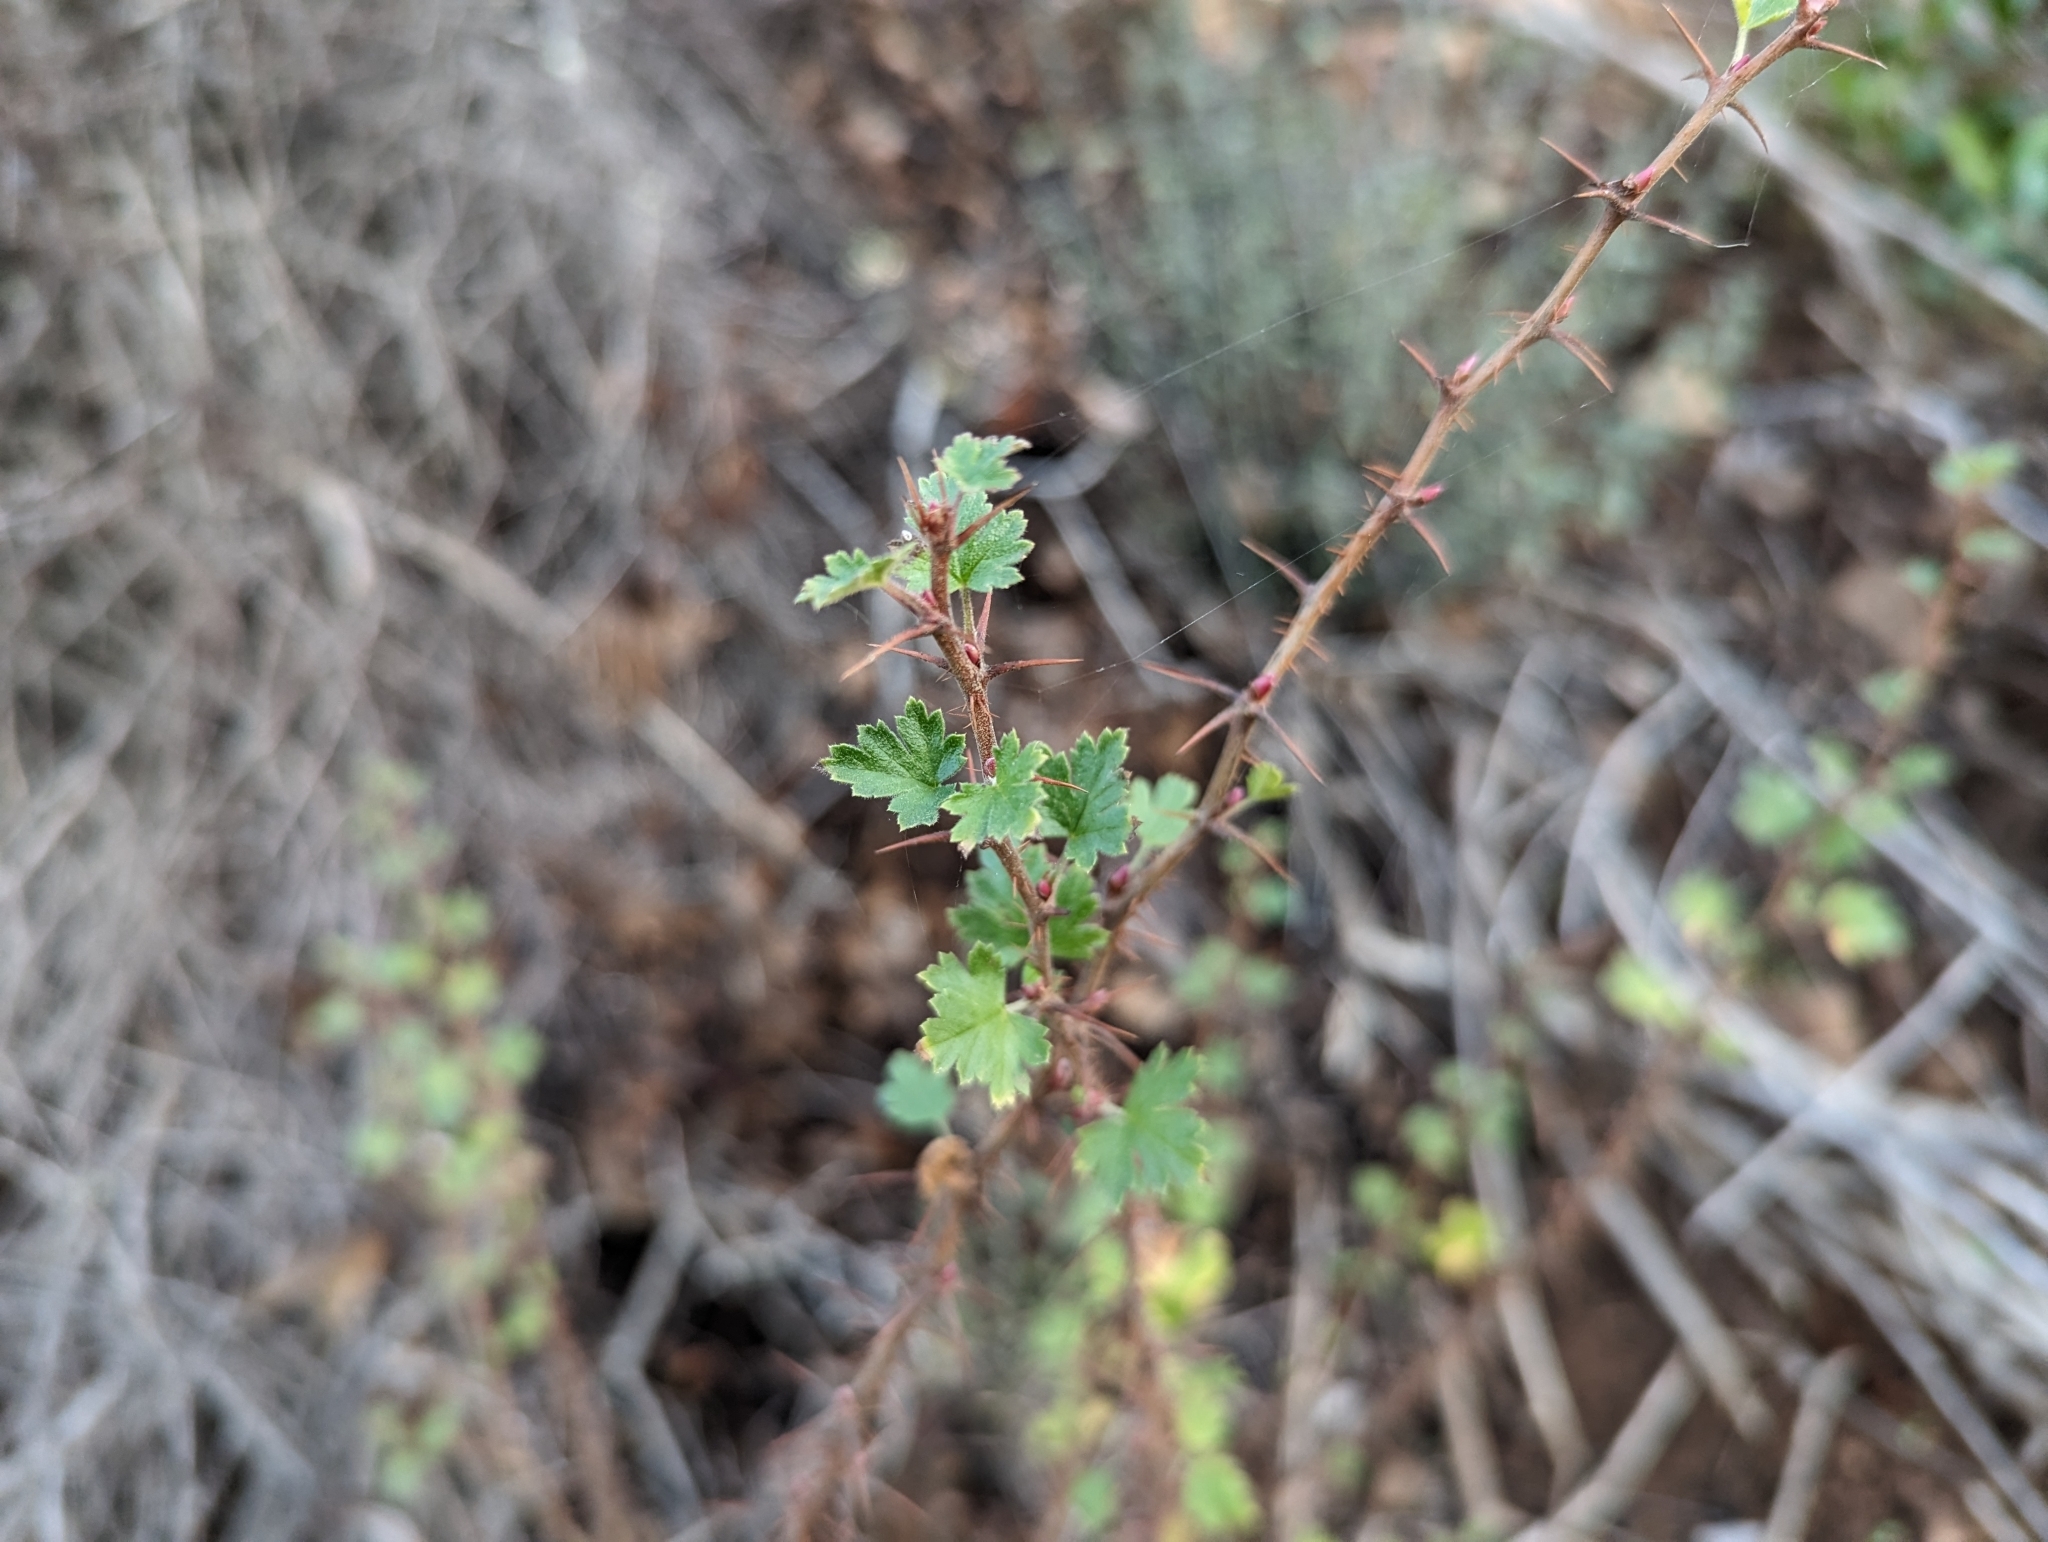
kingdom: Plantae
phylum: Tracheophyta
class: Magnoliopsida
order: Saxifragales
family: Grossulariaceae
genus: Ribes
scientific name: Ribes californicum
